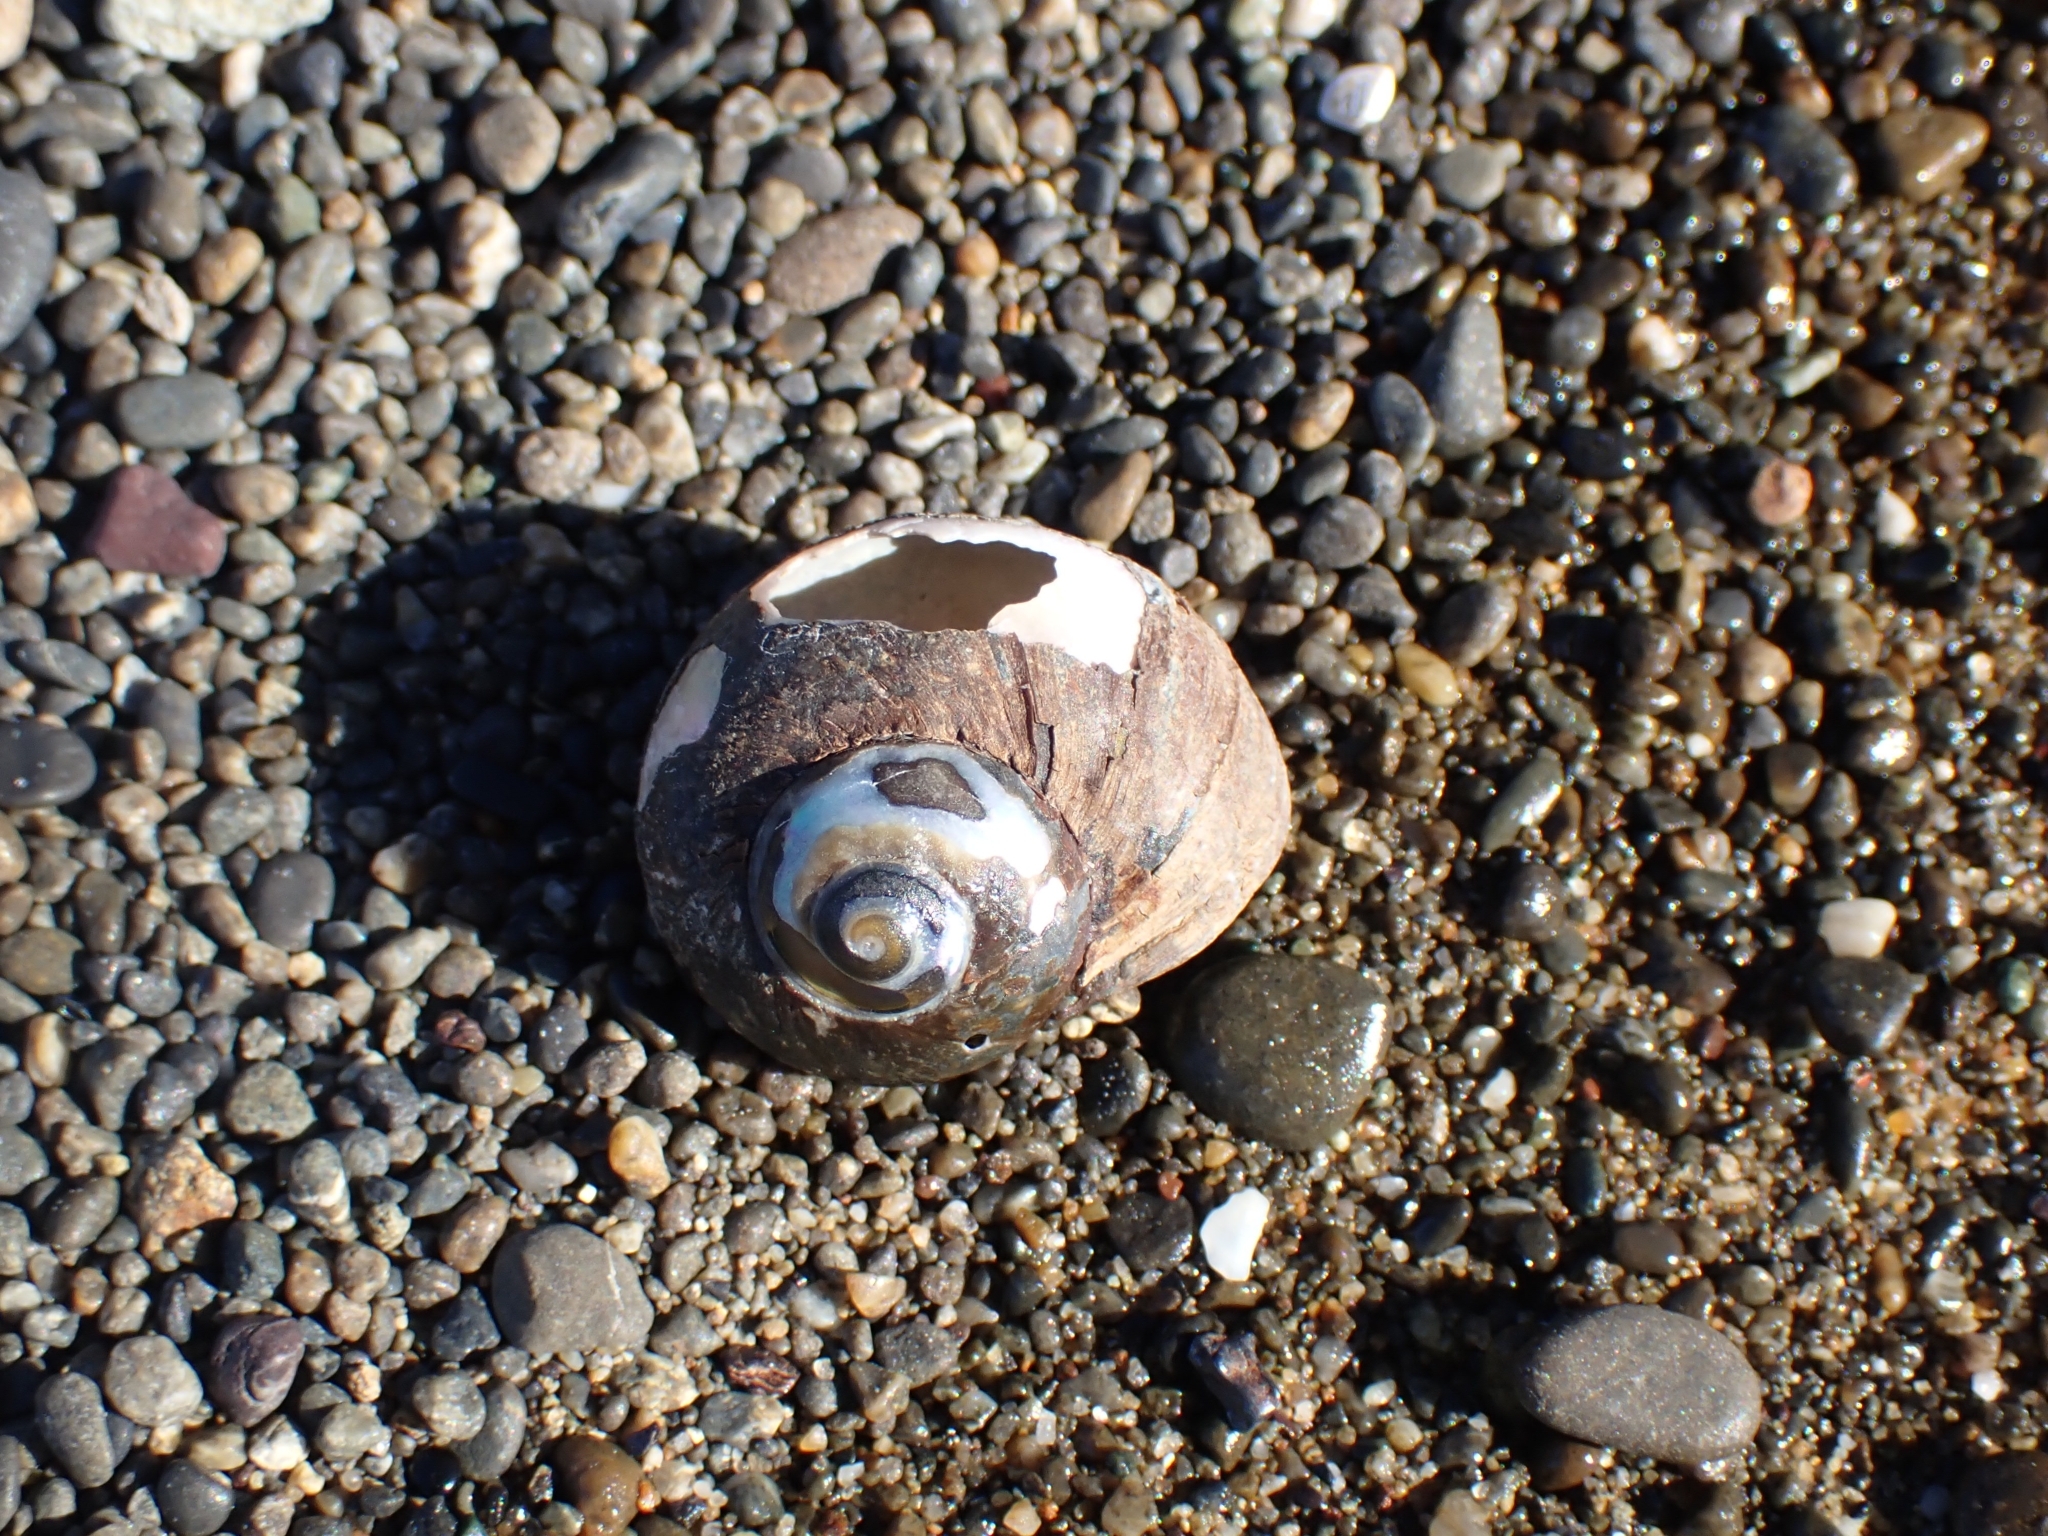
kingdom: Animalia
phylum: Mollusca
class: Gastropoda
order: Trochida
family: Turbinidae
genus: Lunella
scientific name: Lunella smaragda
